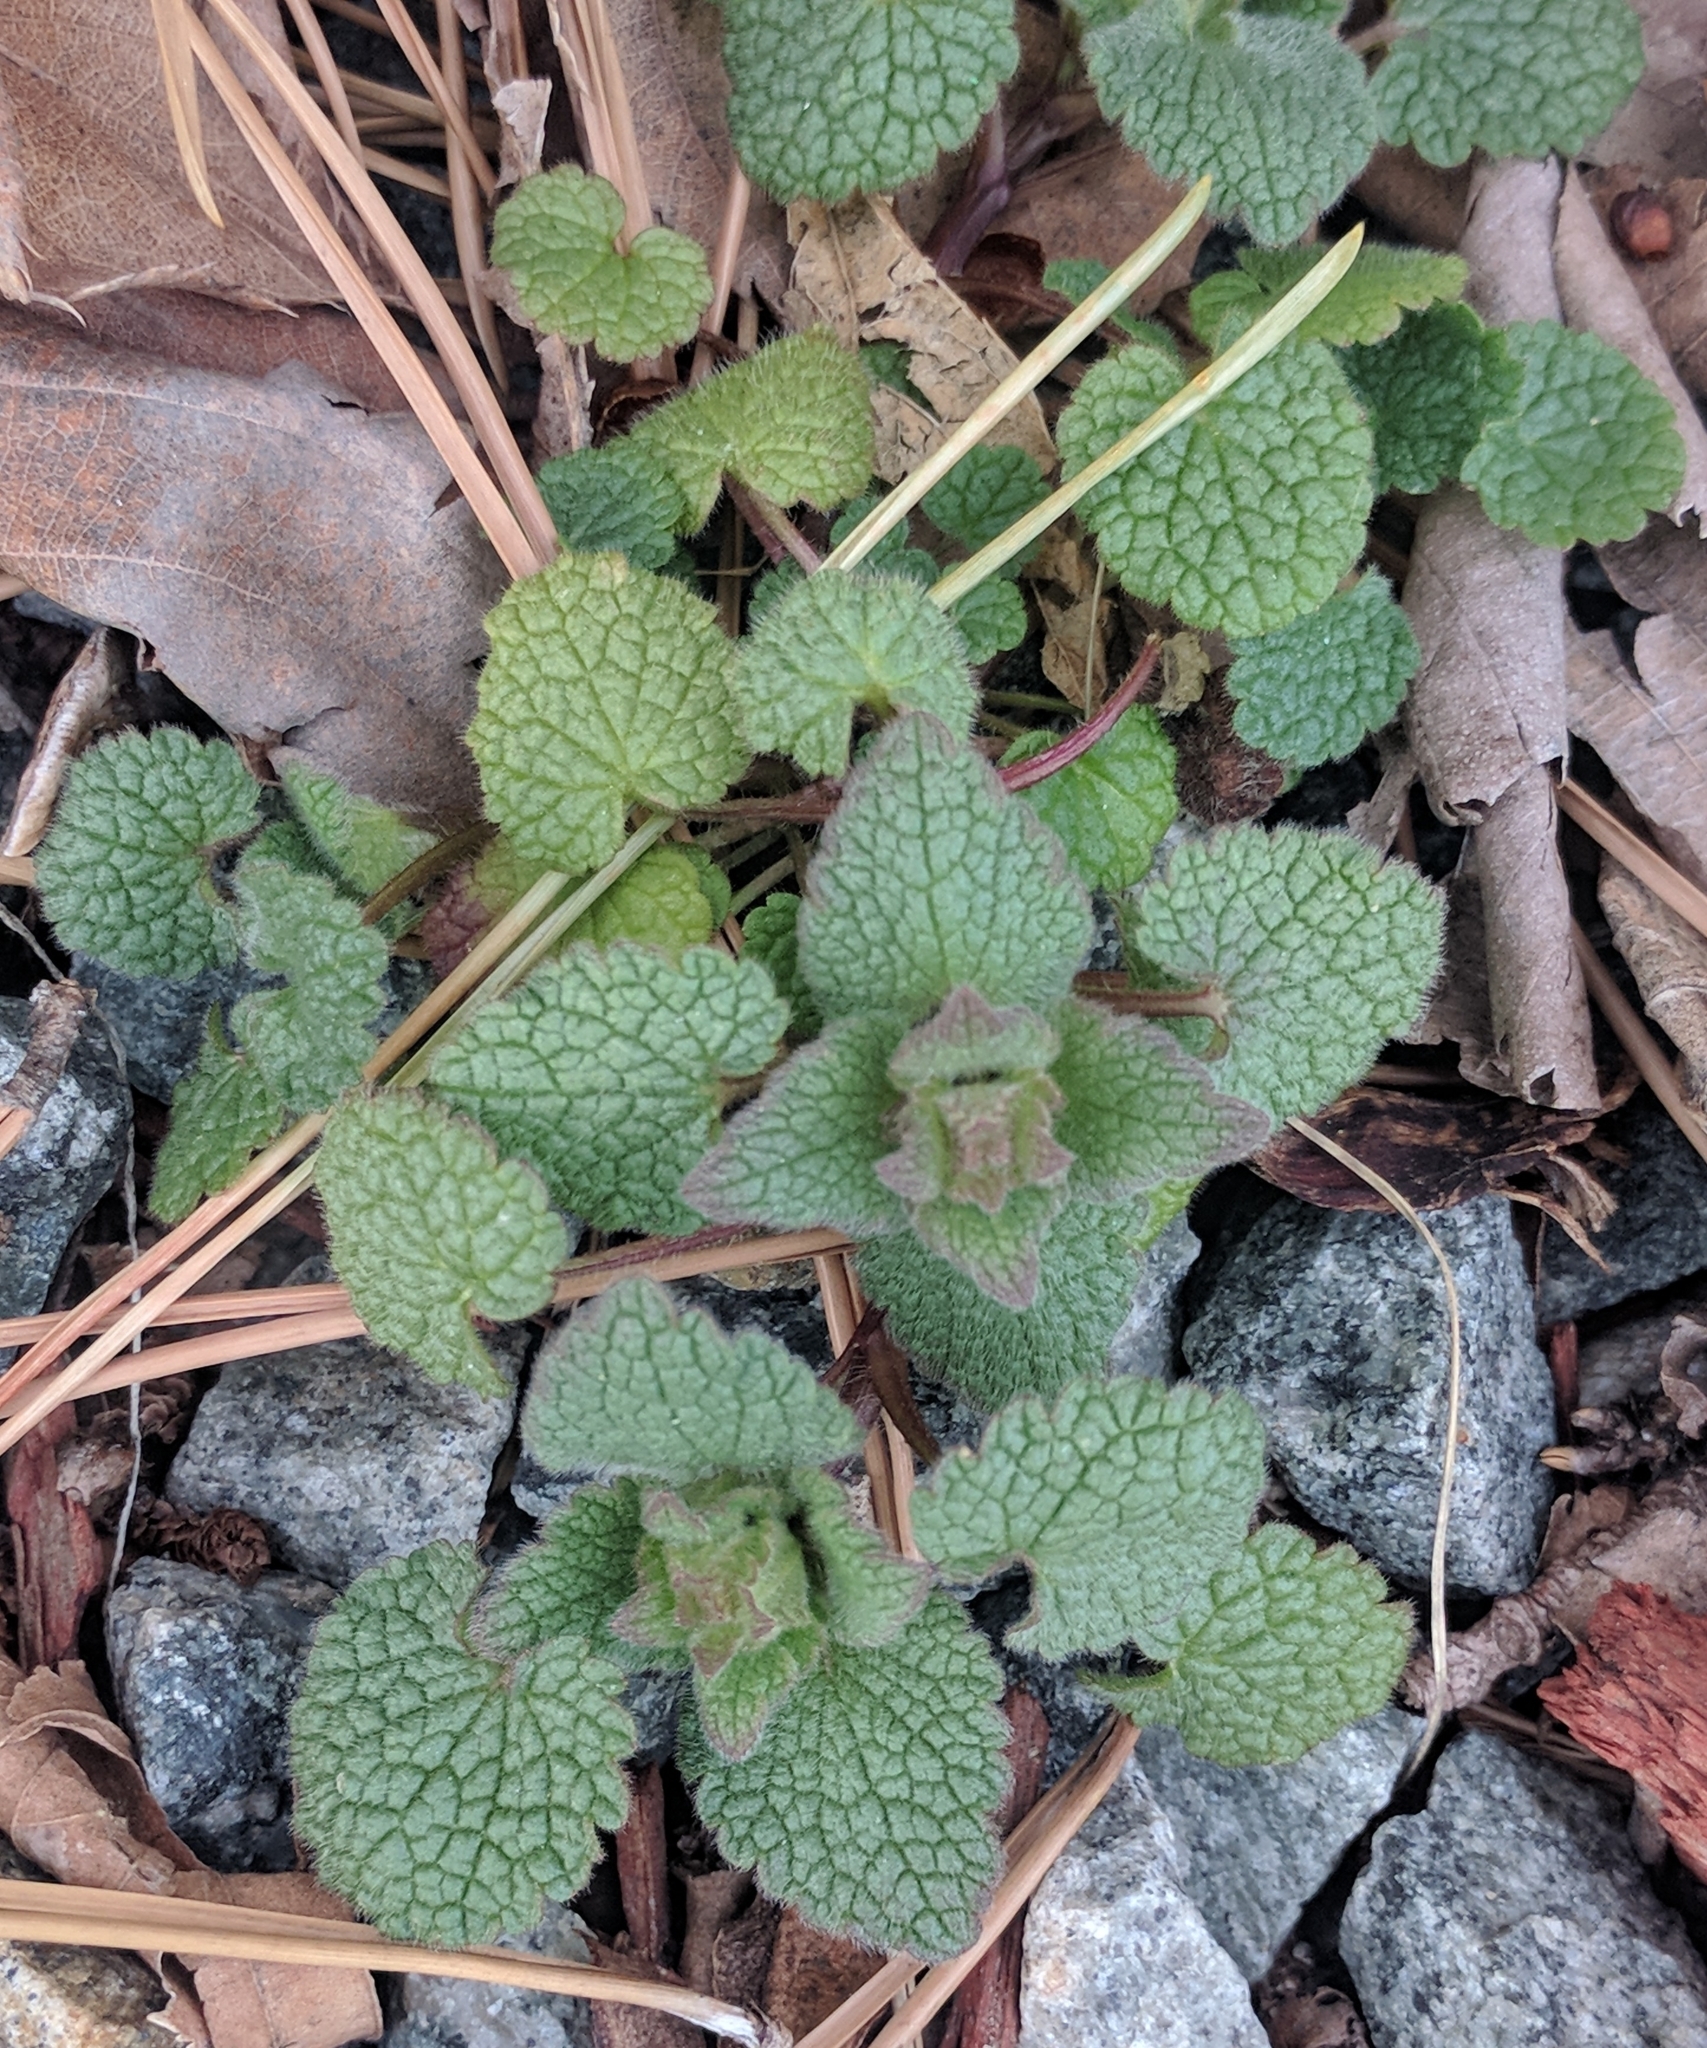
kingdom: Plantae
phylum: Tracheophyta
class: Magnoliopsida
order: Lamiales
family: Lamiaceae
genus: Lamium
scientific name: Lamium purpureum
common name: Red dead-nettle
